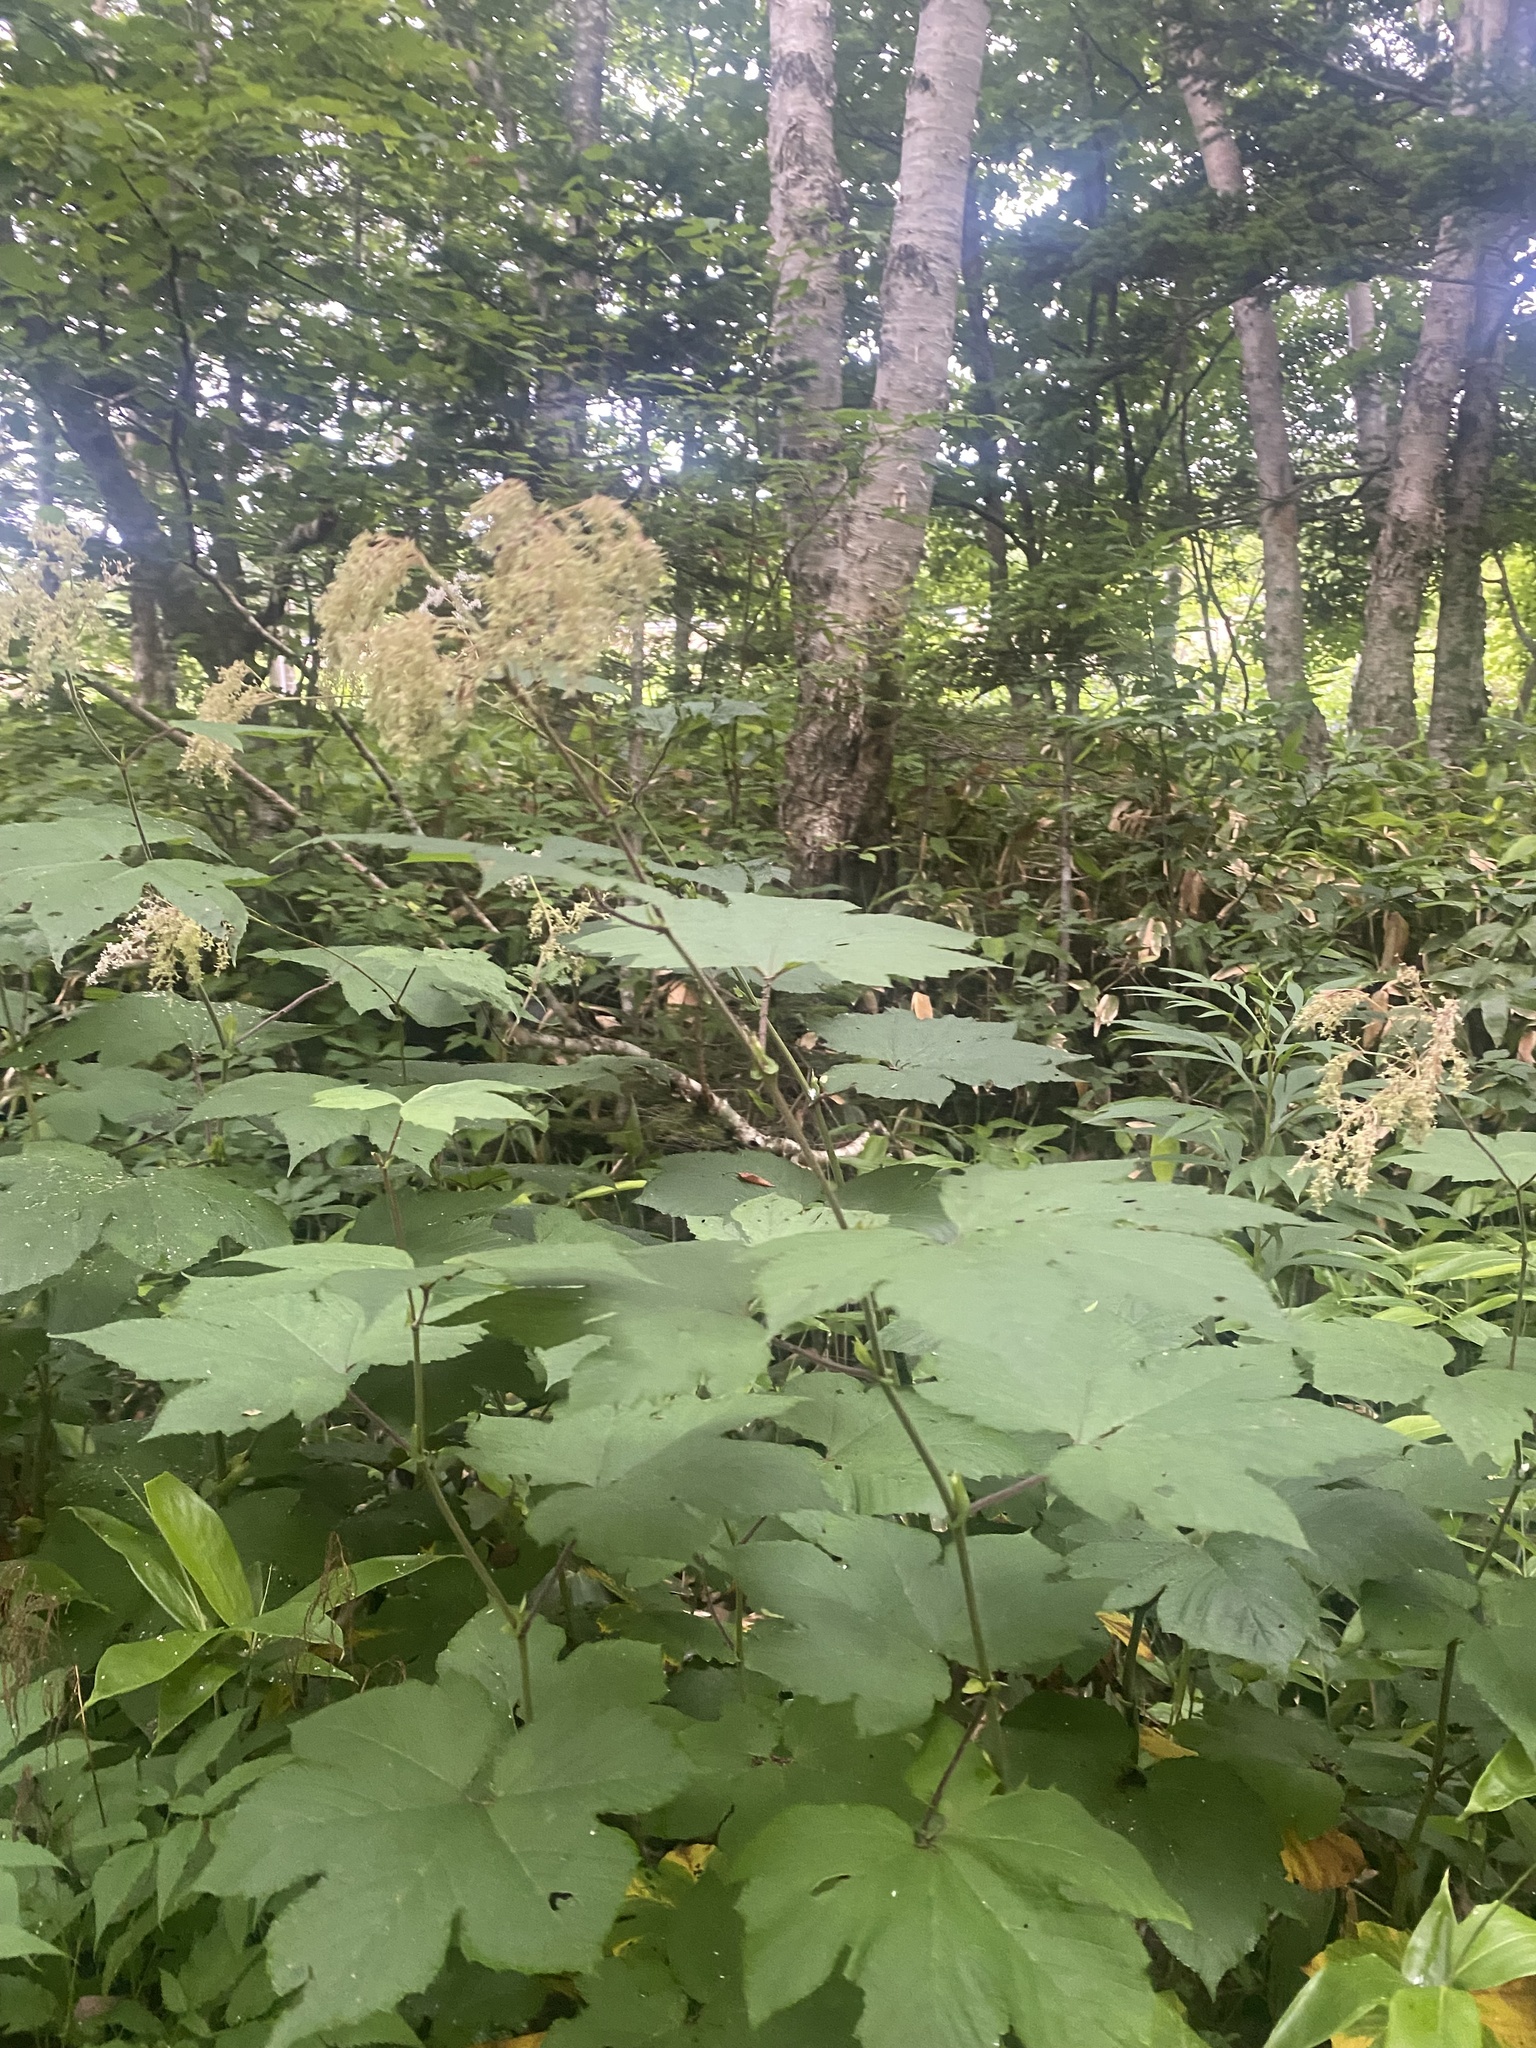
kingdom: Plantae
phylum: Tracheophyta
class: Magnoliopsida
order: Rosales
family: Rosaceae
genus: Filipendula
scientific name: Filipendula camtschatica
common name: Giant meadowsweet
